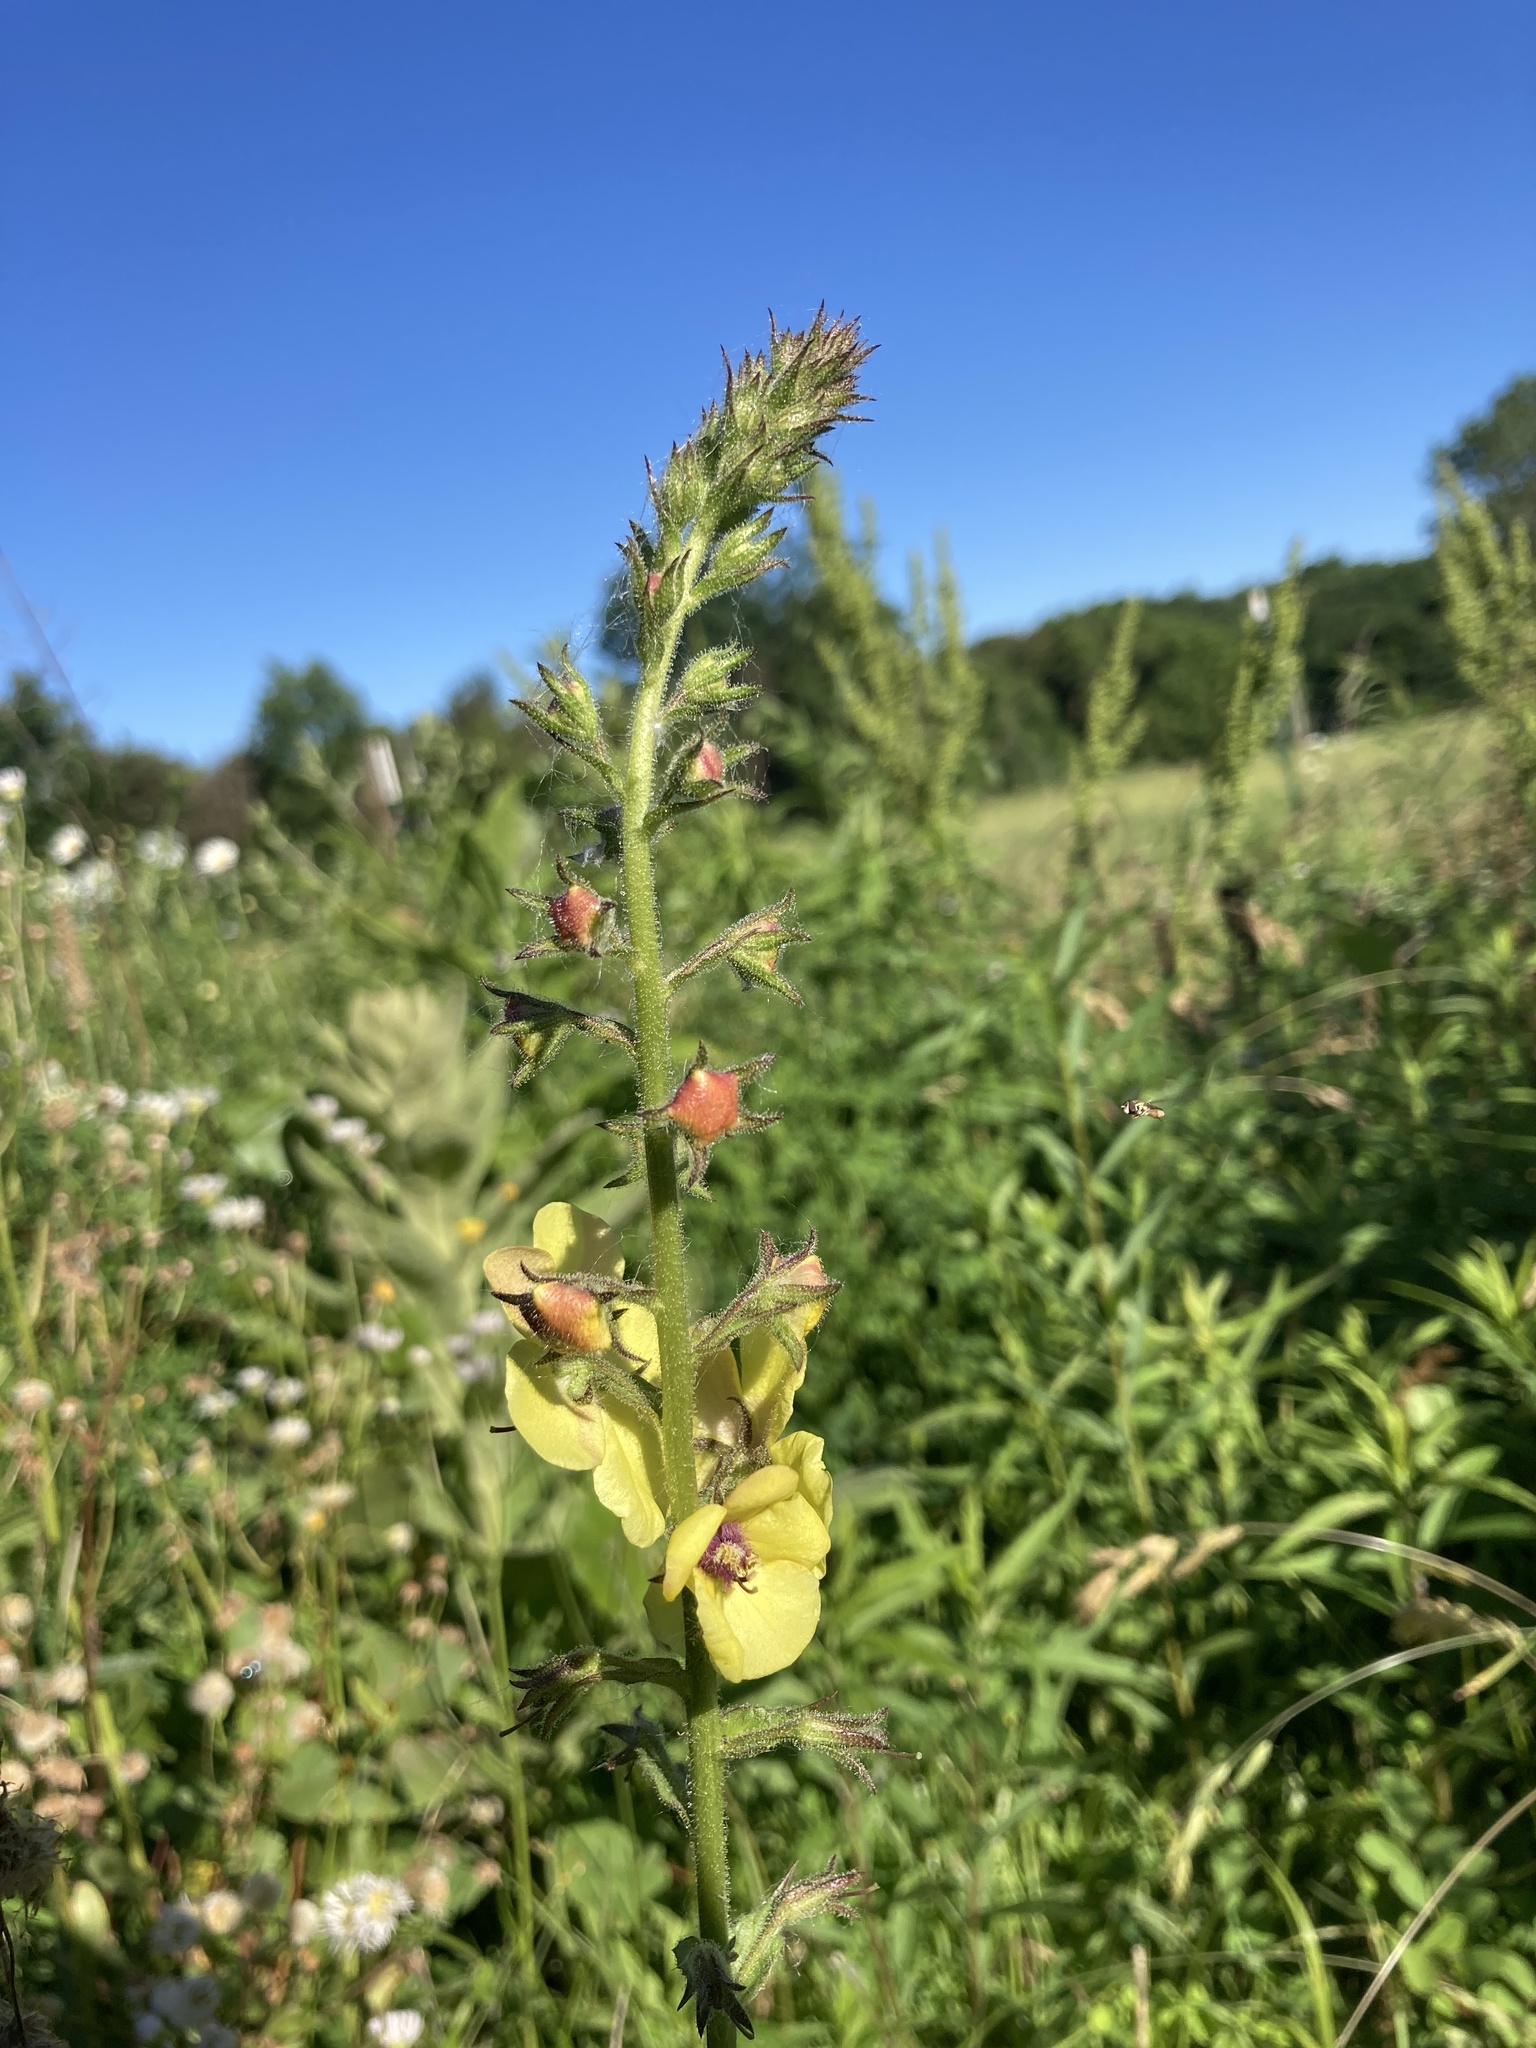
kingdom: Plantae
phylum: Tracheophyta
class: Magnoliopsida
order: Lamiales
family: Scrophulariaceae
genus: Verbascum
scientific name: Verbascum blattaria
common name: Moth mullein
